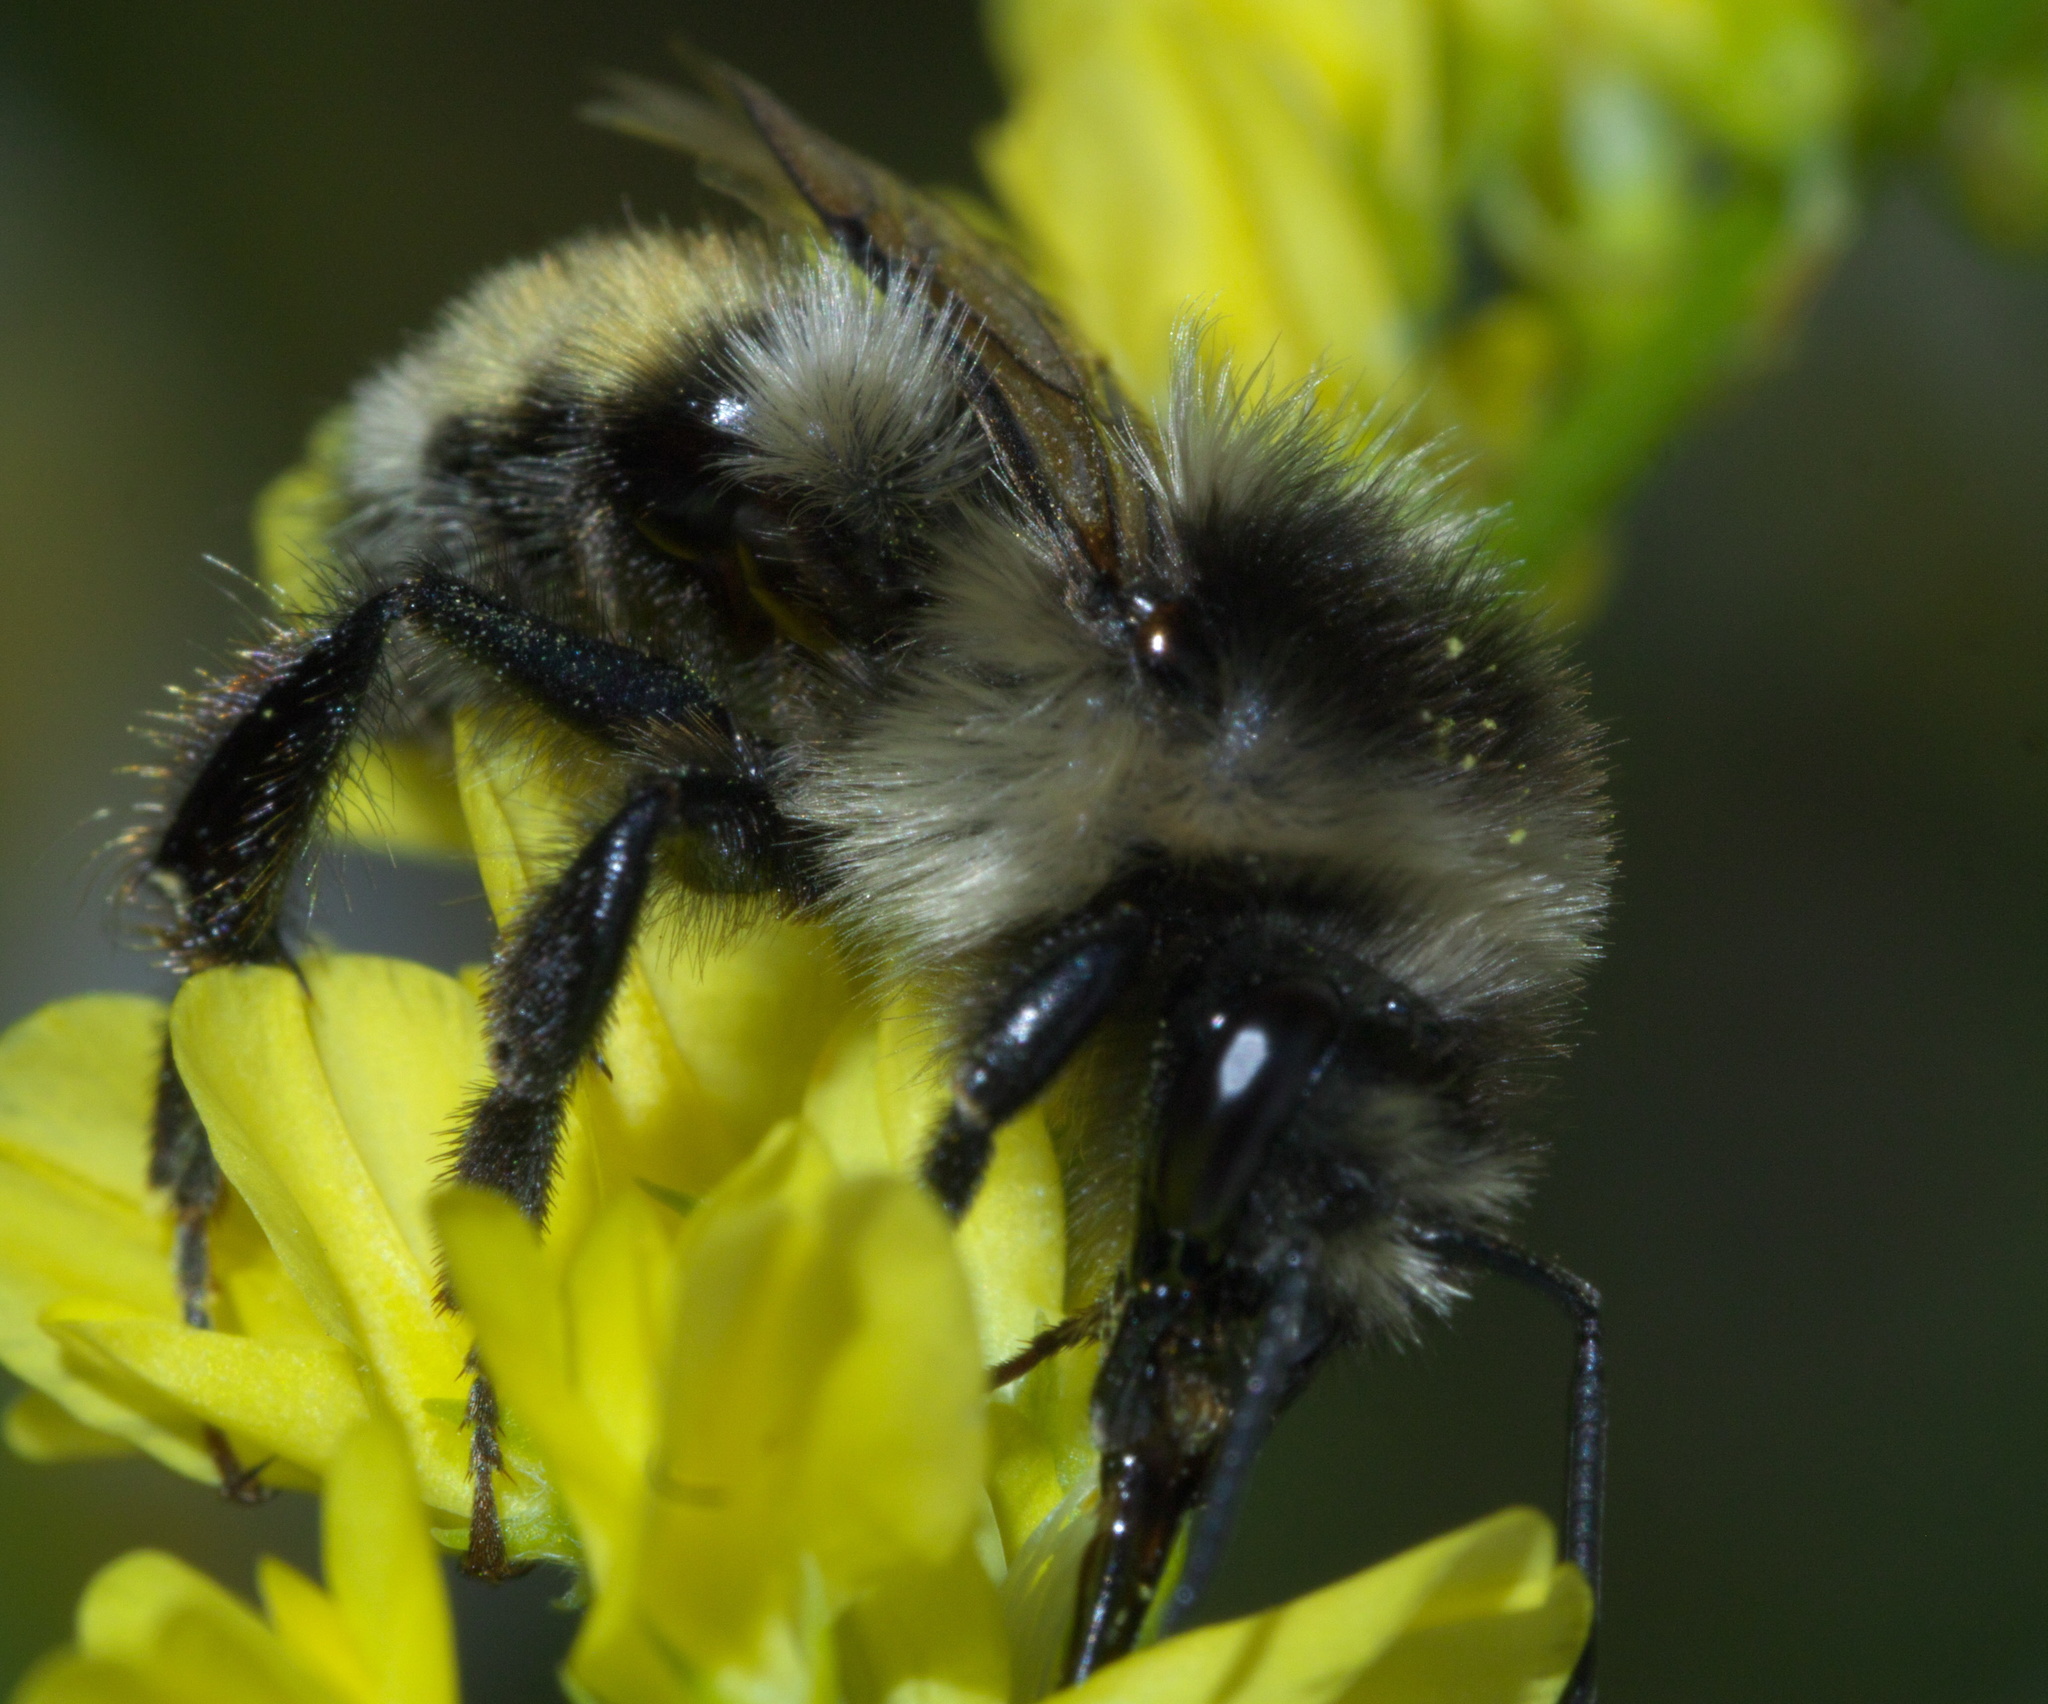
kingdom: Animalia
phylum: Arthropoda
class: Insecta
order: Hymenoptera
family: Apidae
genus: Bombus
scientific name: Bombus bifarius
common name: Two form bumble bee
